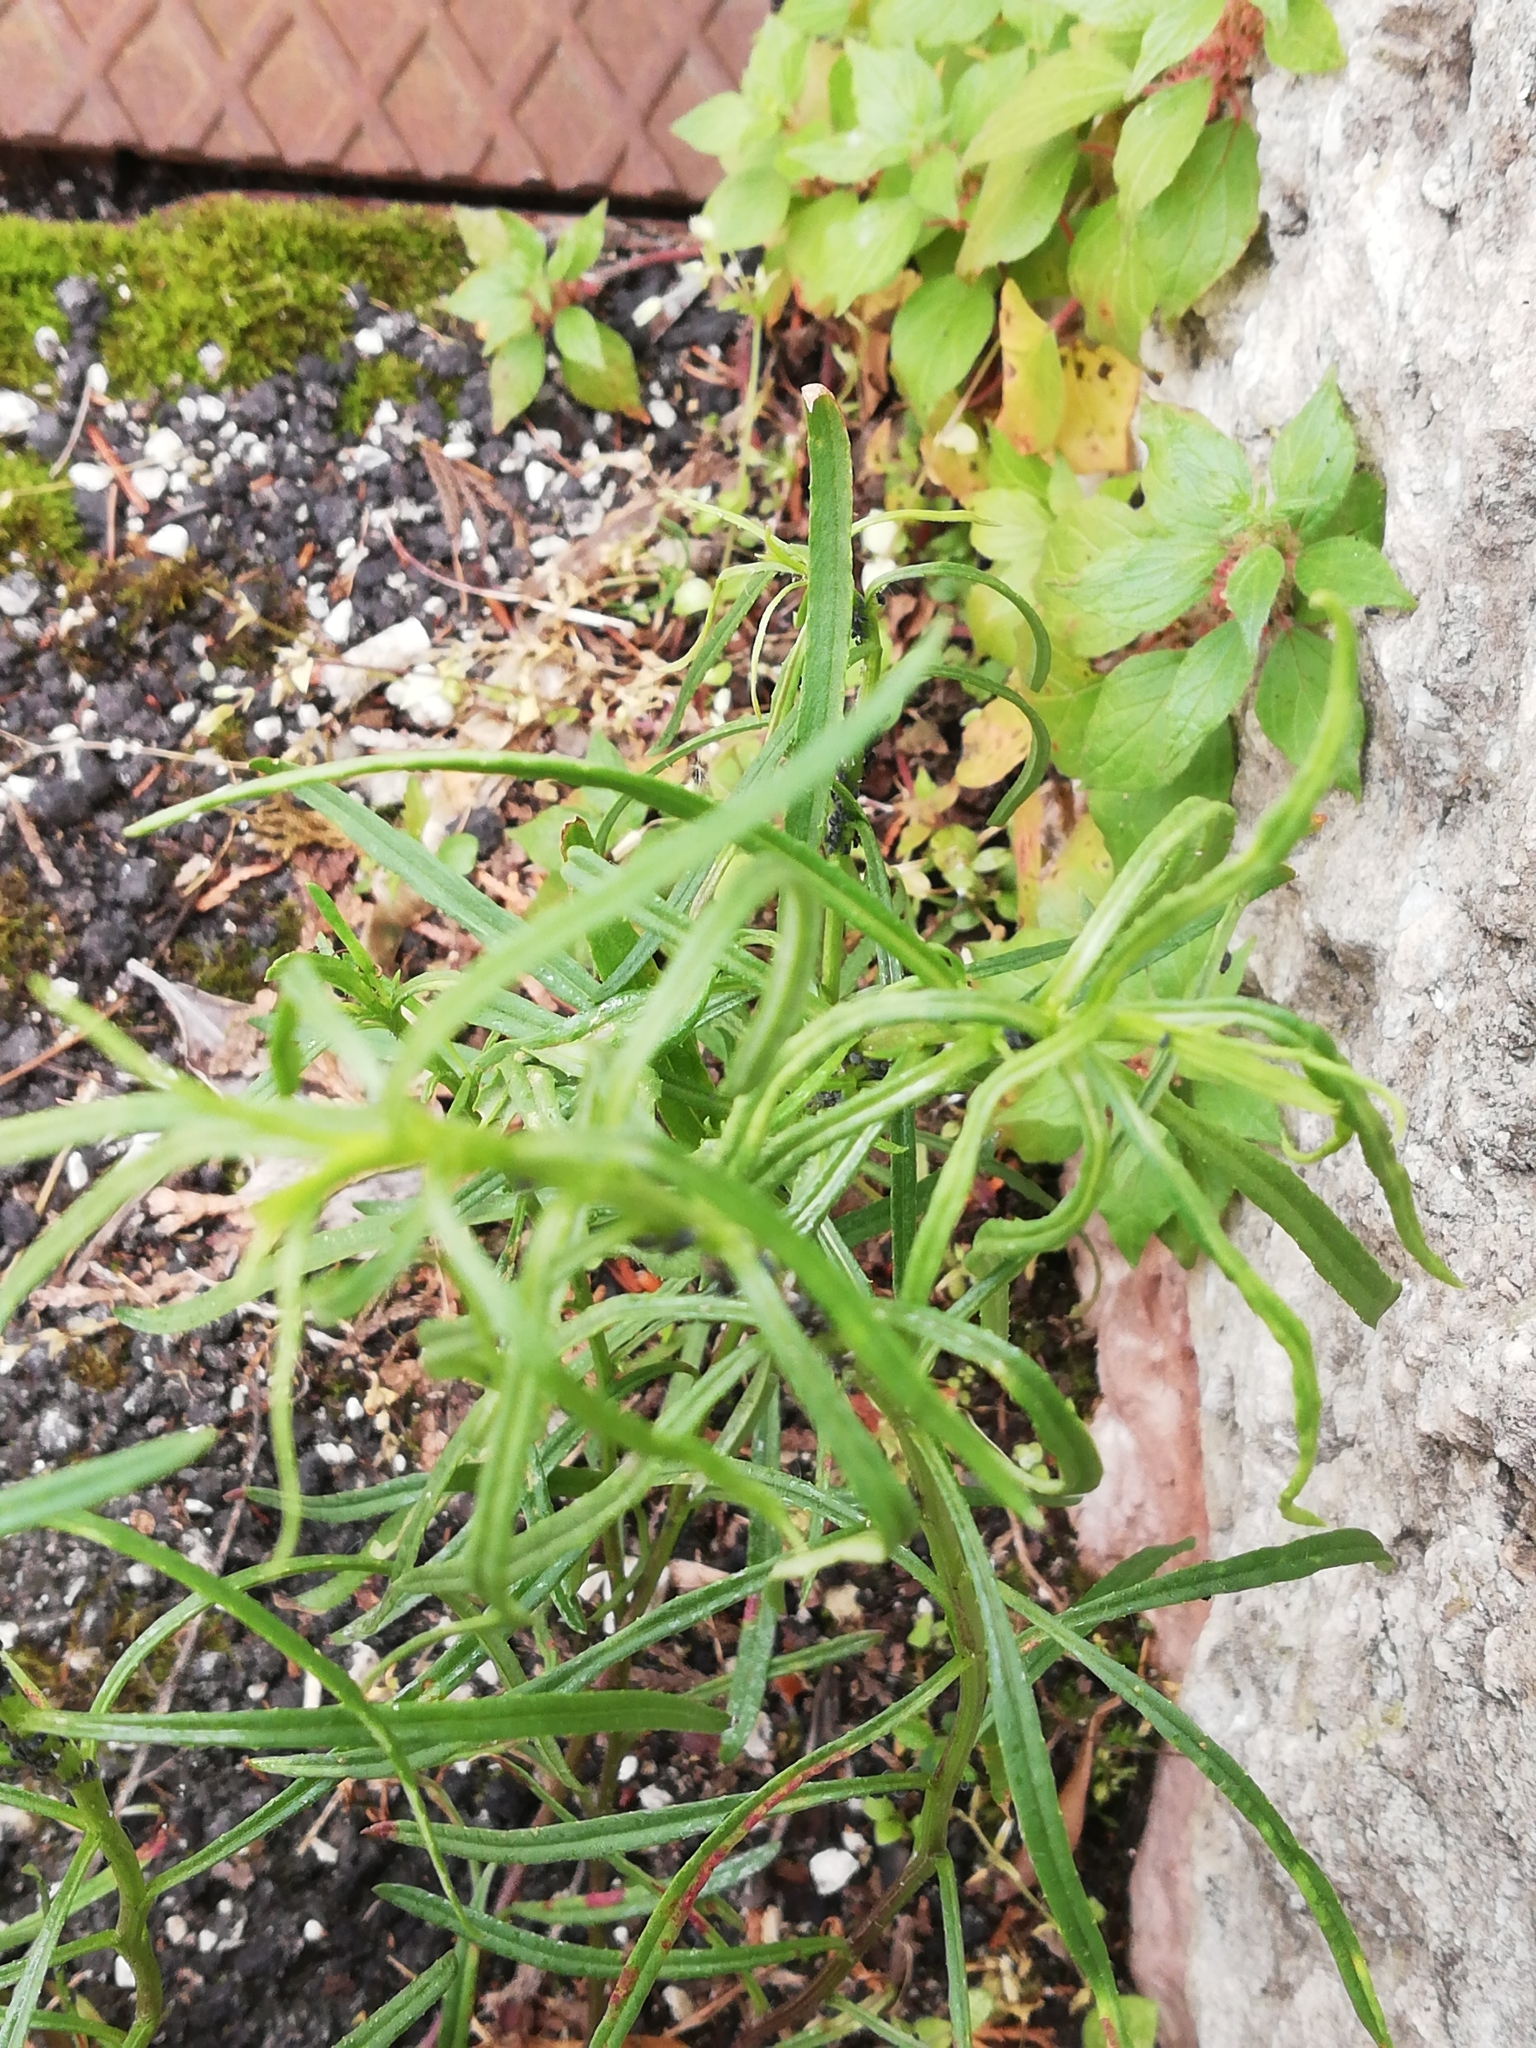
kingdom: Plantae
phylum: Tracheophyta
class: Magnoliopsida
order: Asterales
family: Asteraceae
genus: Senecio
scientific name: Senecio inaequidens
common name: Narrow-leaved ragwort
